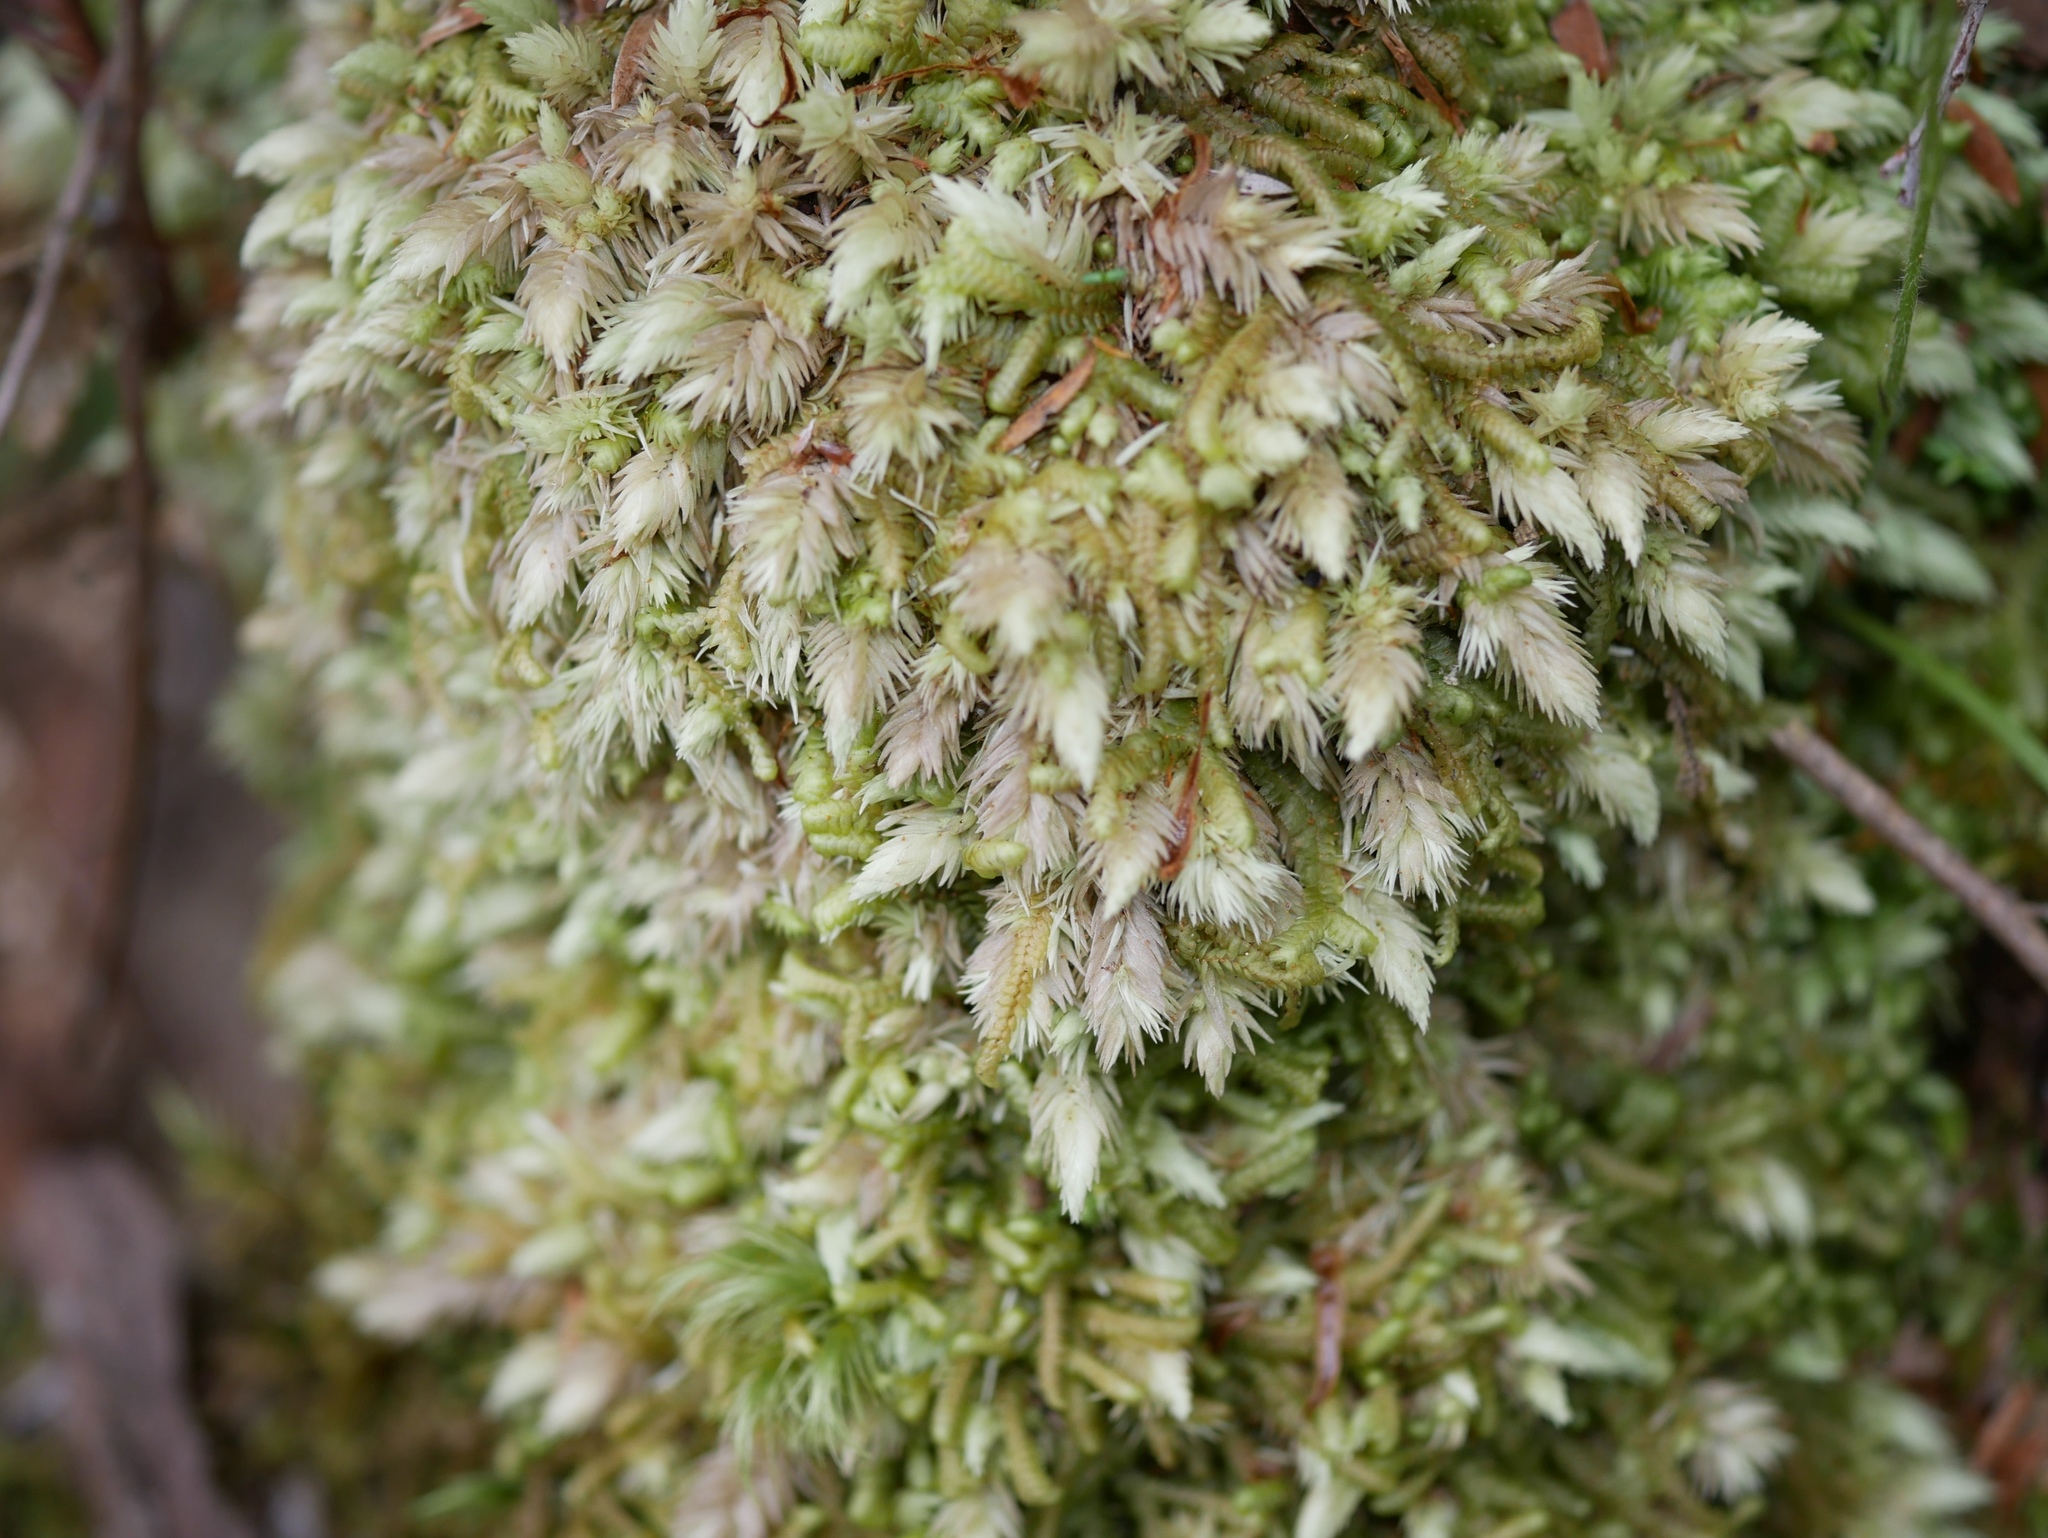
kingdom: Plantae
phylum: Bryophyta
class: Bryopsida
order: Dicranales
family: Leucobryaceae
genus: Leucobryum
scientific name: Leucobryum javense
